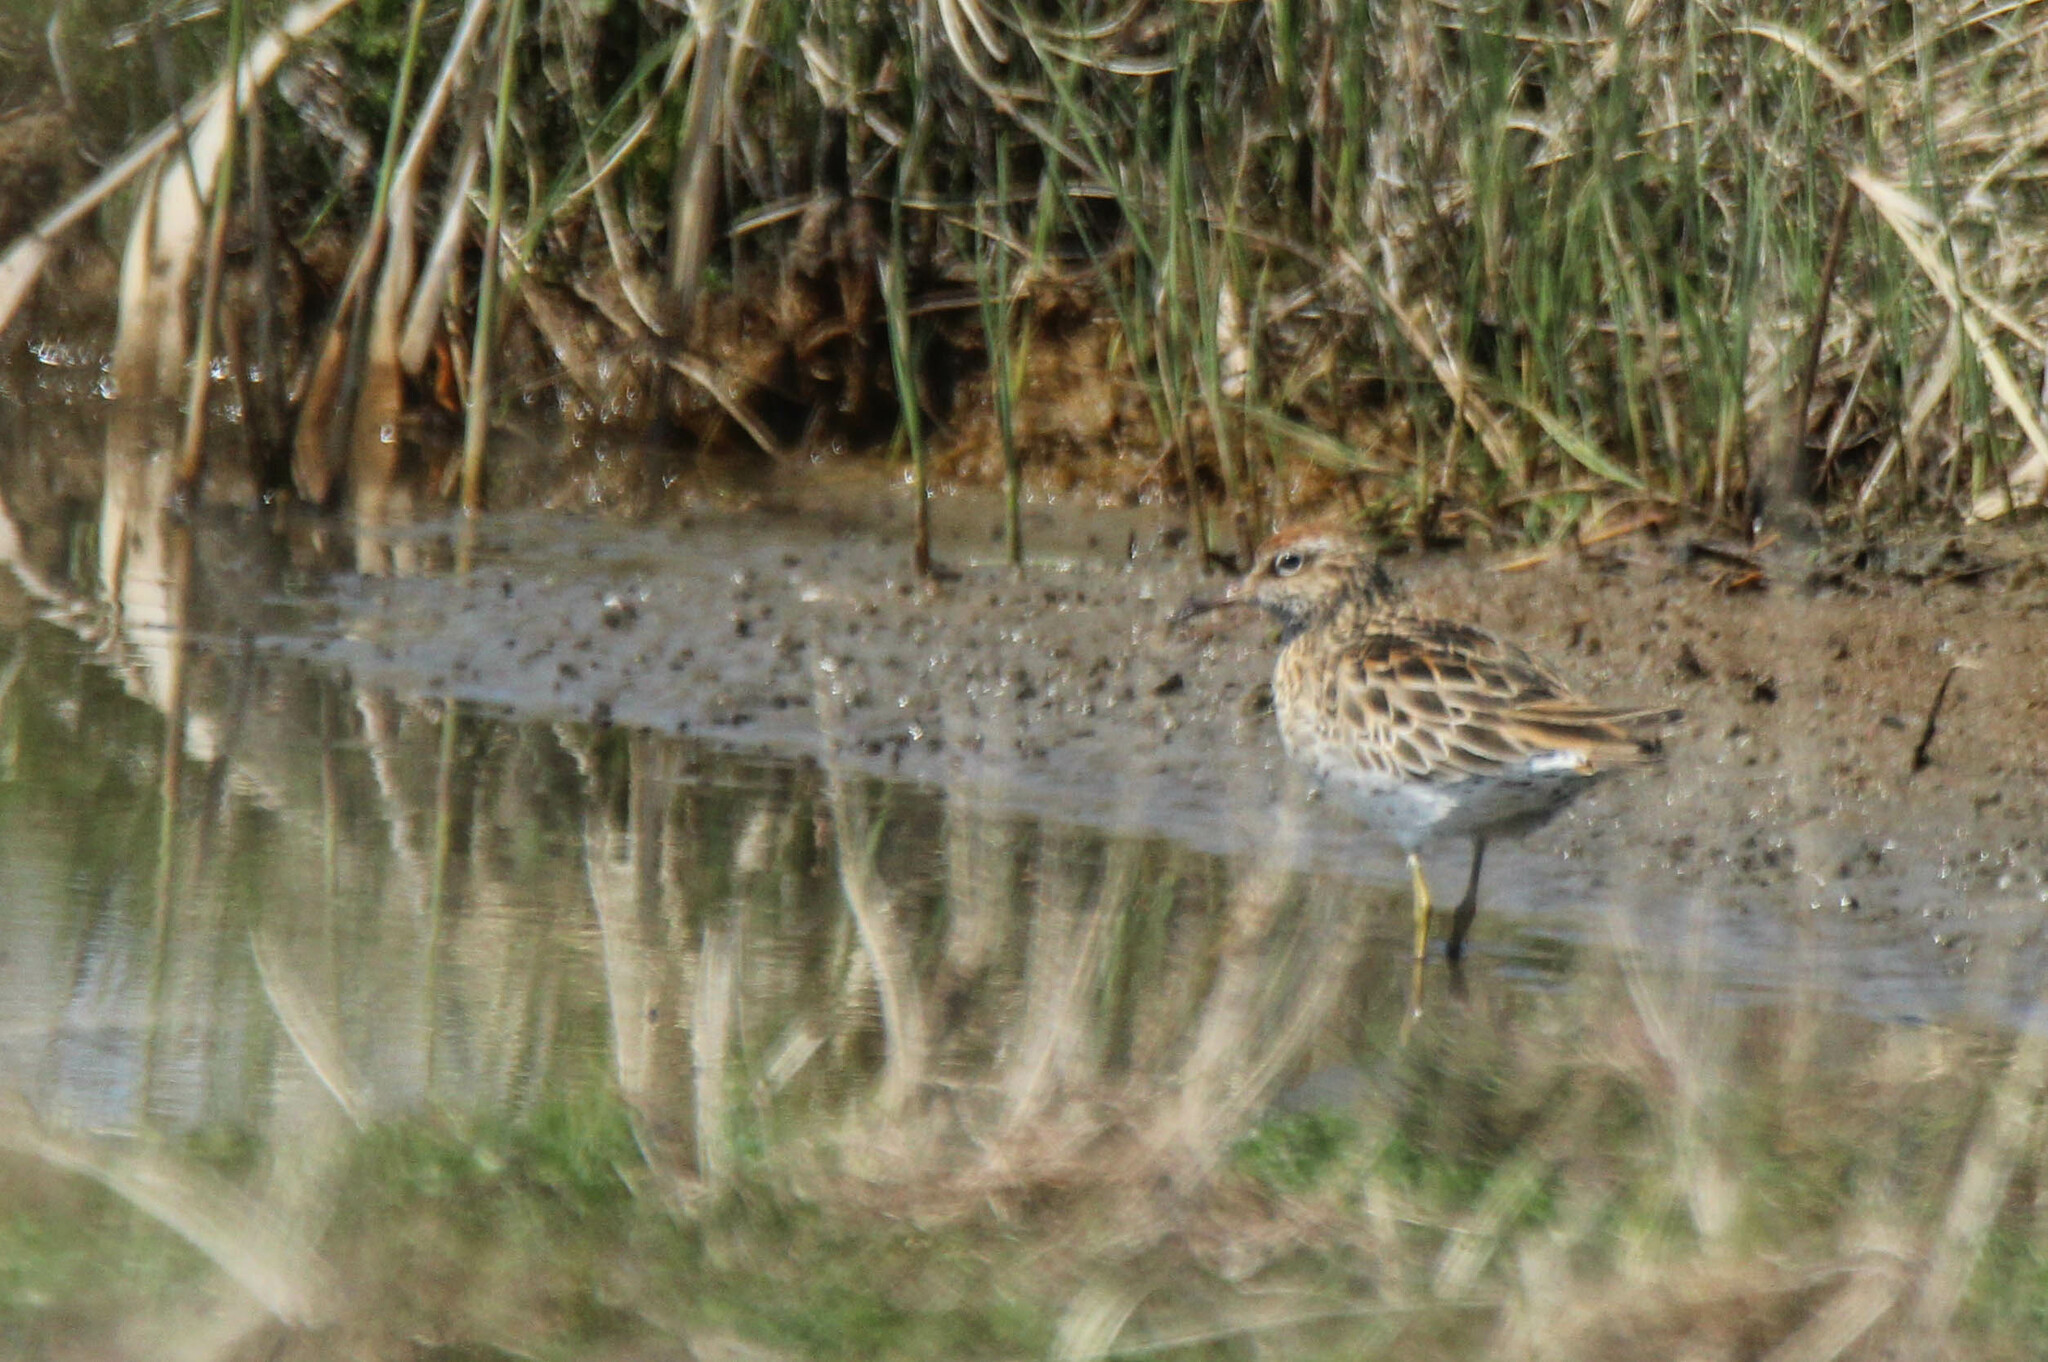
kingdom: Animalia
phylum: Chordata
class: Aves
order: Charadriiformes
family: Scolopacidae
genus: Calidris
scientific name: Calidris acuminata
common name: Sharp-tailed sandpiper
